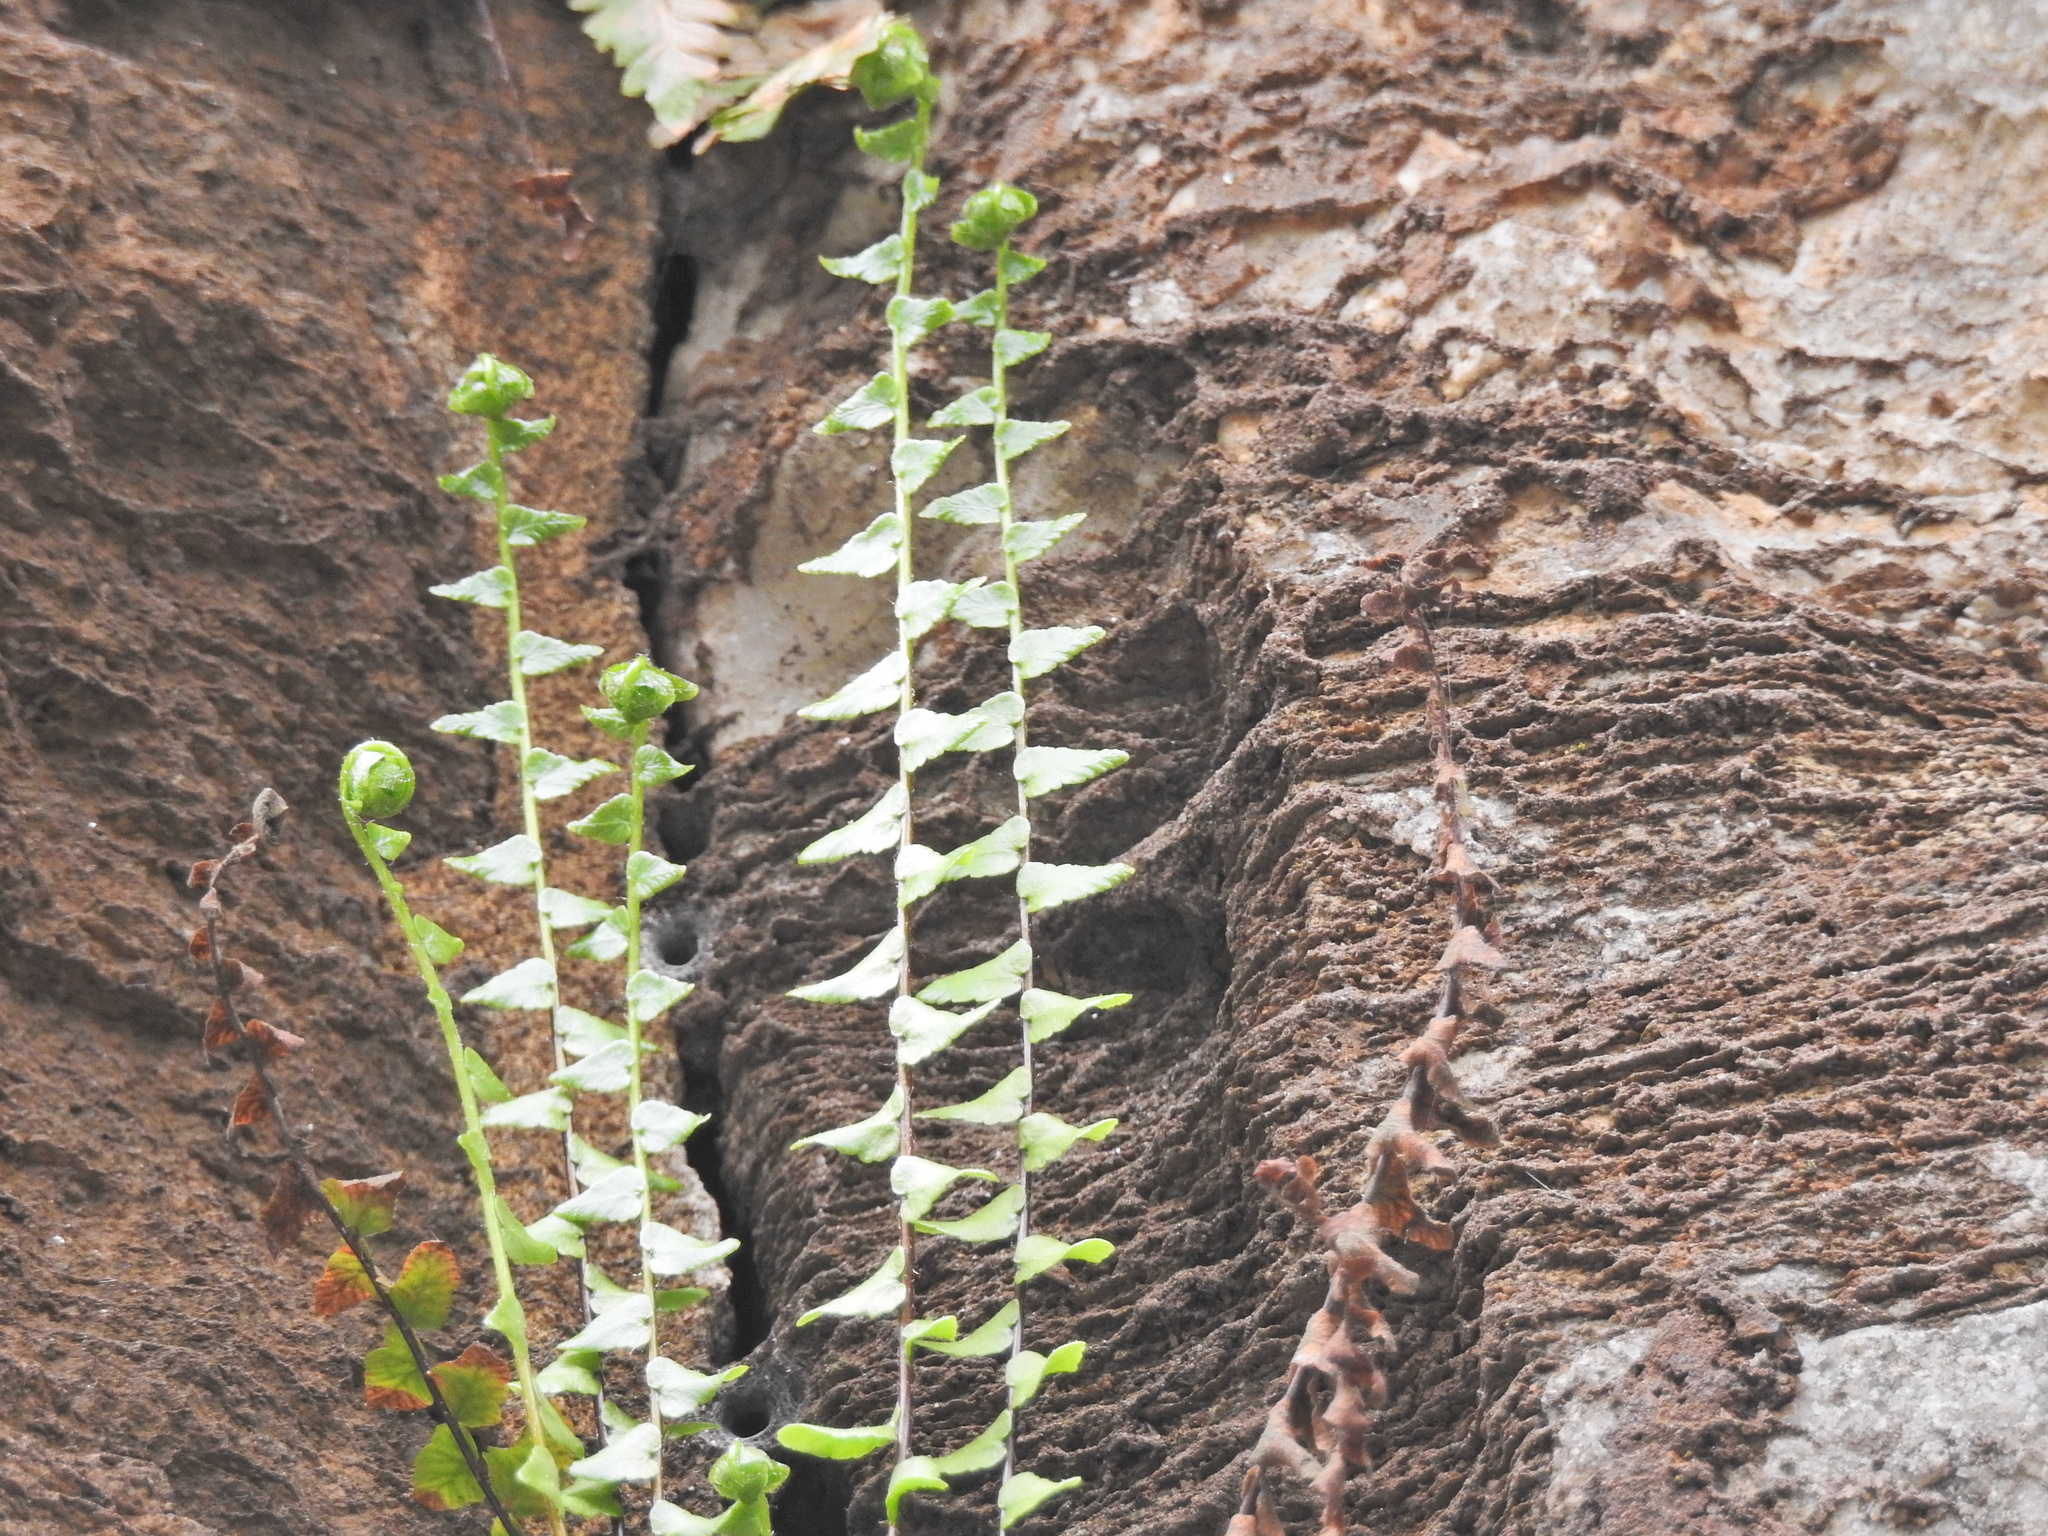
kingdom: Plantae
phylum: Tracheophyta
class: Polypodiopsida
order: Polypodiales
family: Aspleniaceae
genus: Asplenium
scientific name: Asplenium platyneuron
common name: Ebony spleenwort
